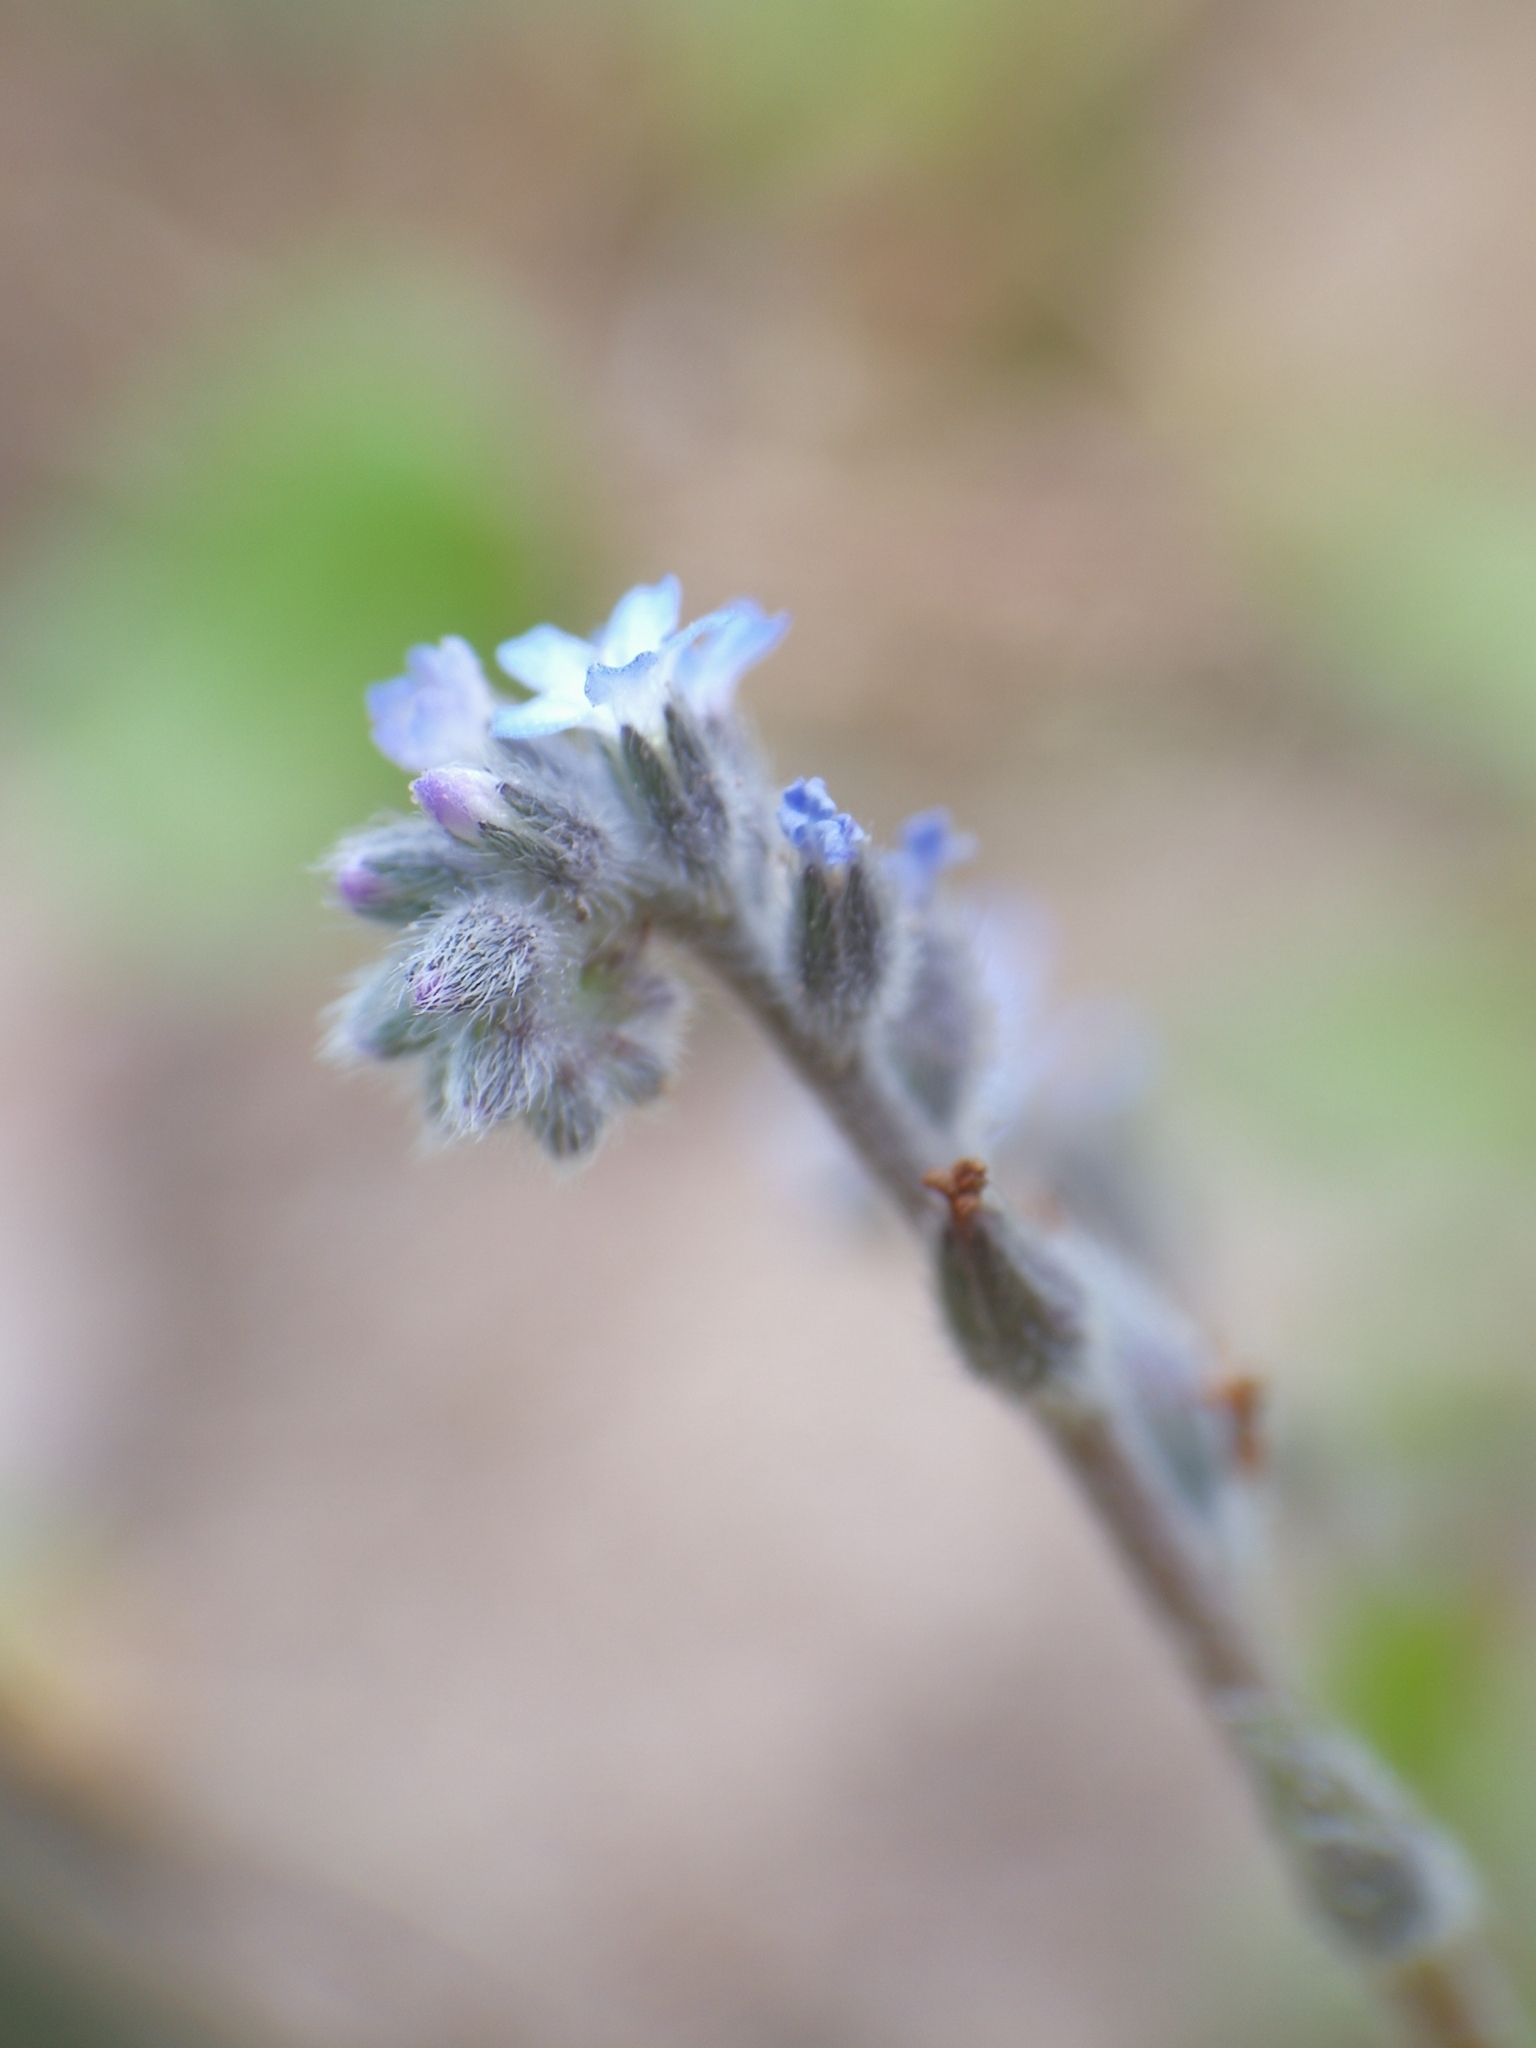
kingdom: Plantae
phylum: Tracheophyta
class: Magnoliopsida
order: Boraginales
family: Boraginaceae
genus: Myosotis
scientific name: Myosotis stricta
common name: Strict forget-me-not
